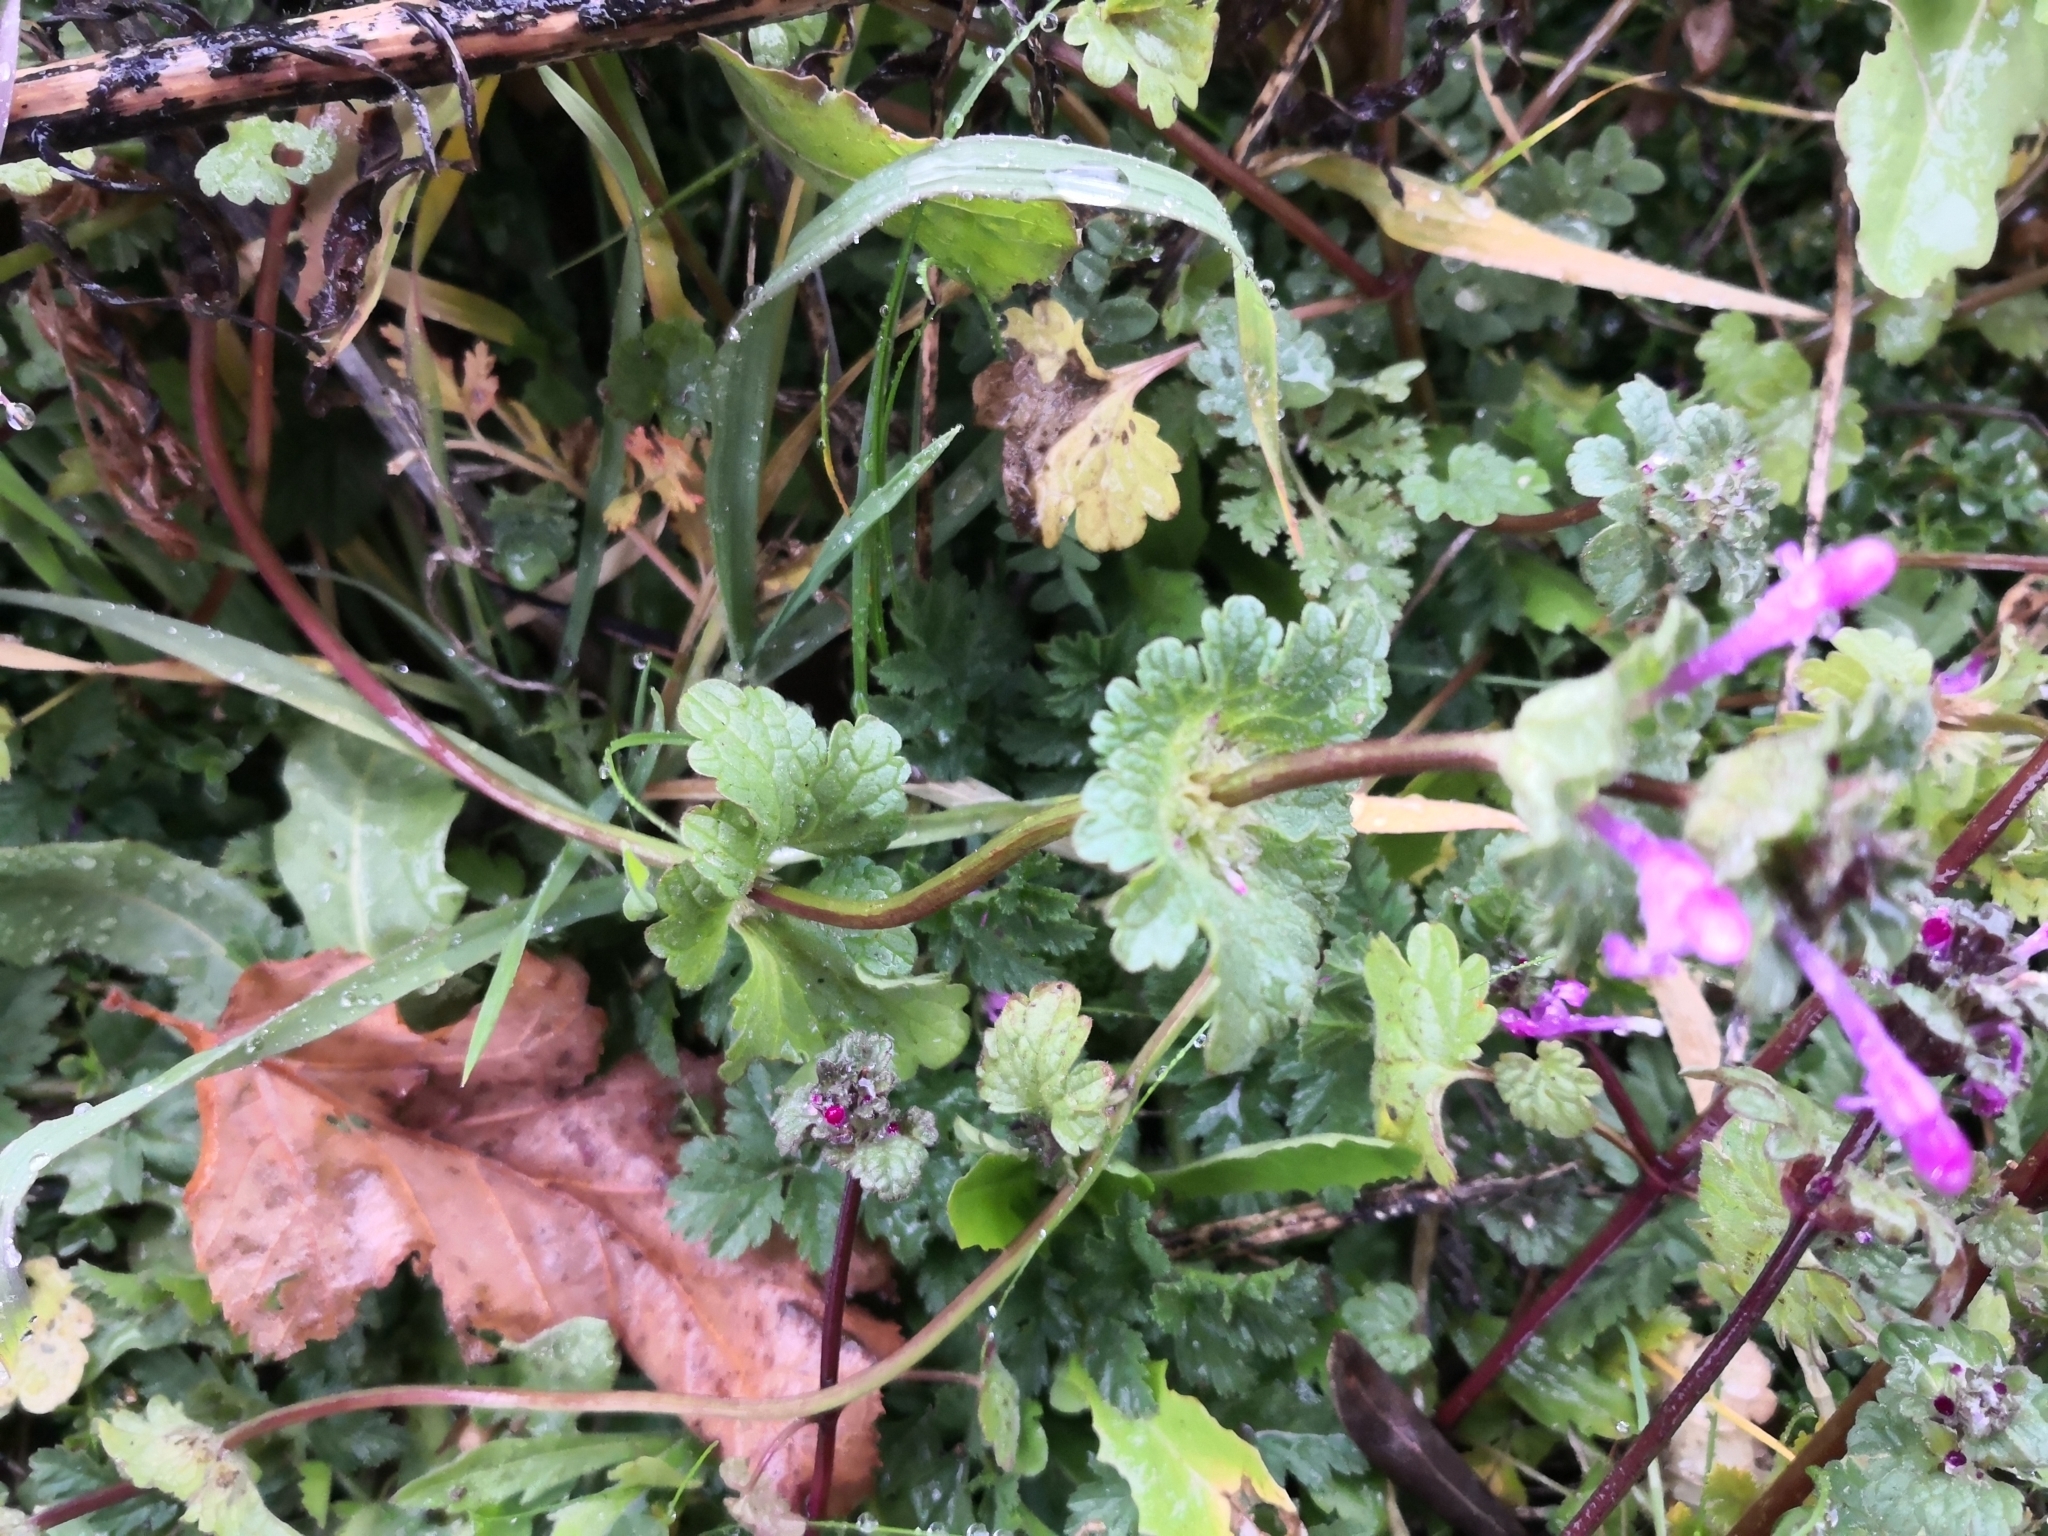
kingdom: Plantae
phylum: Tracheophyta
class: Magnoliopsida
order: Lamiales
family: Lamiaceae
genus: Lamium
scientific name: Lamium amplexicaule
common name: Henbit dead-nettle
